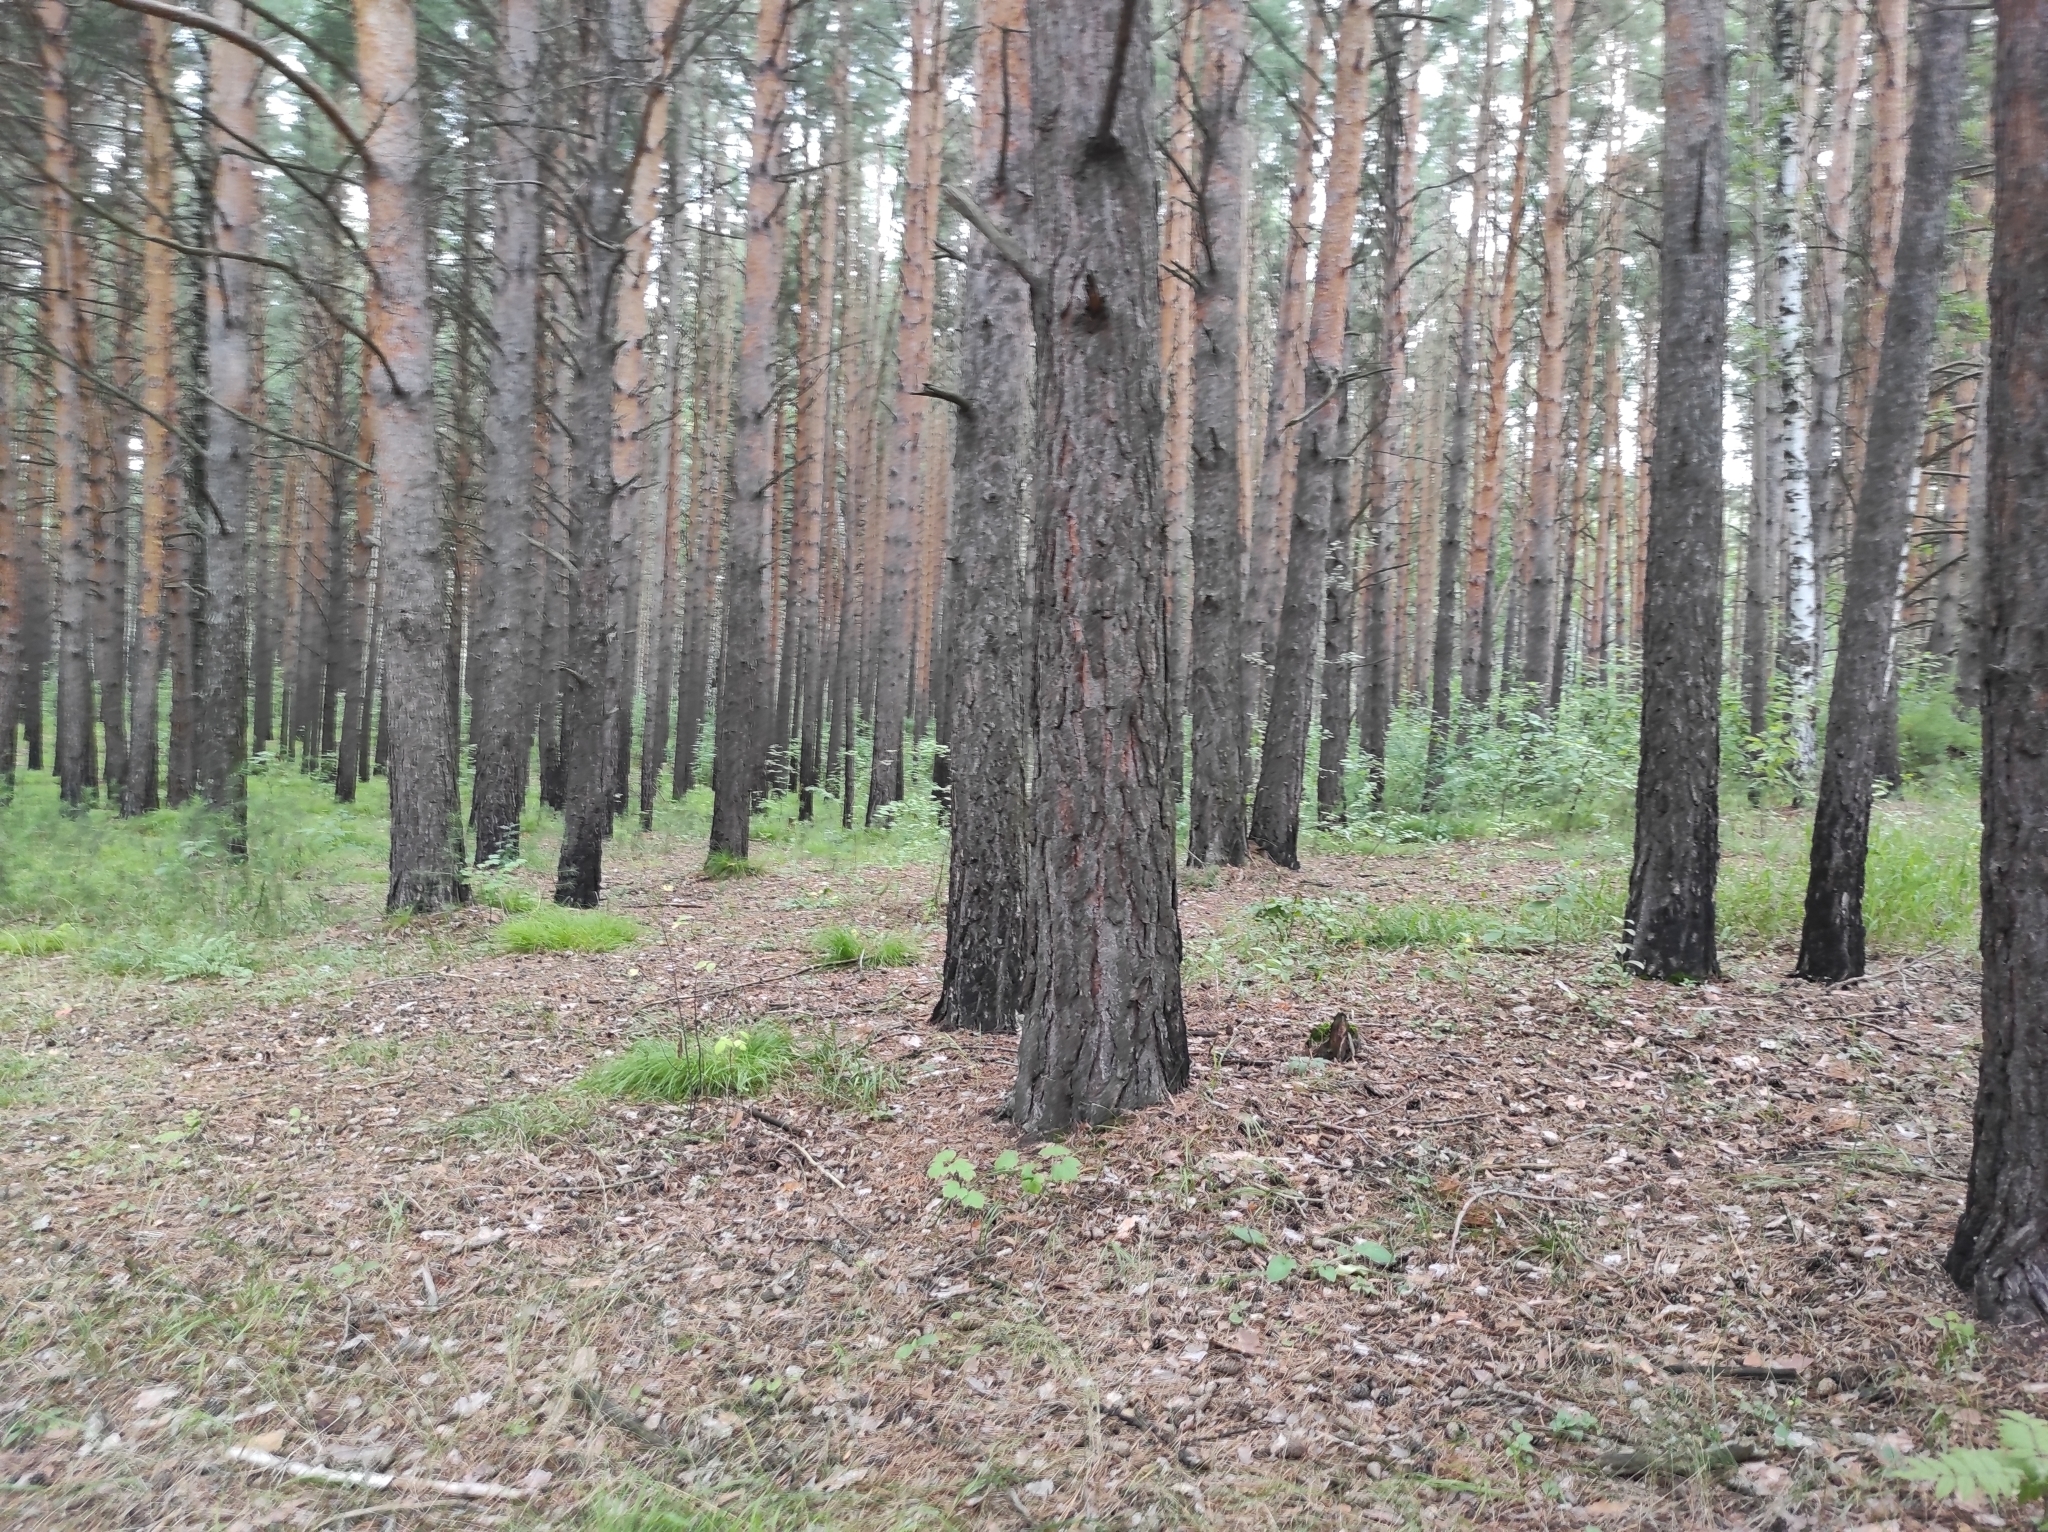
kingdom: Fungi
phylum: Basidiomycota
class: Agaricomycetes
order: Agaricales
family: Amanitaceae
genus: Amanita
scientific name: Amanita muscaria
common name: Fly agaric
